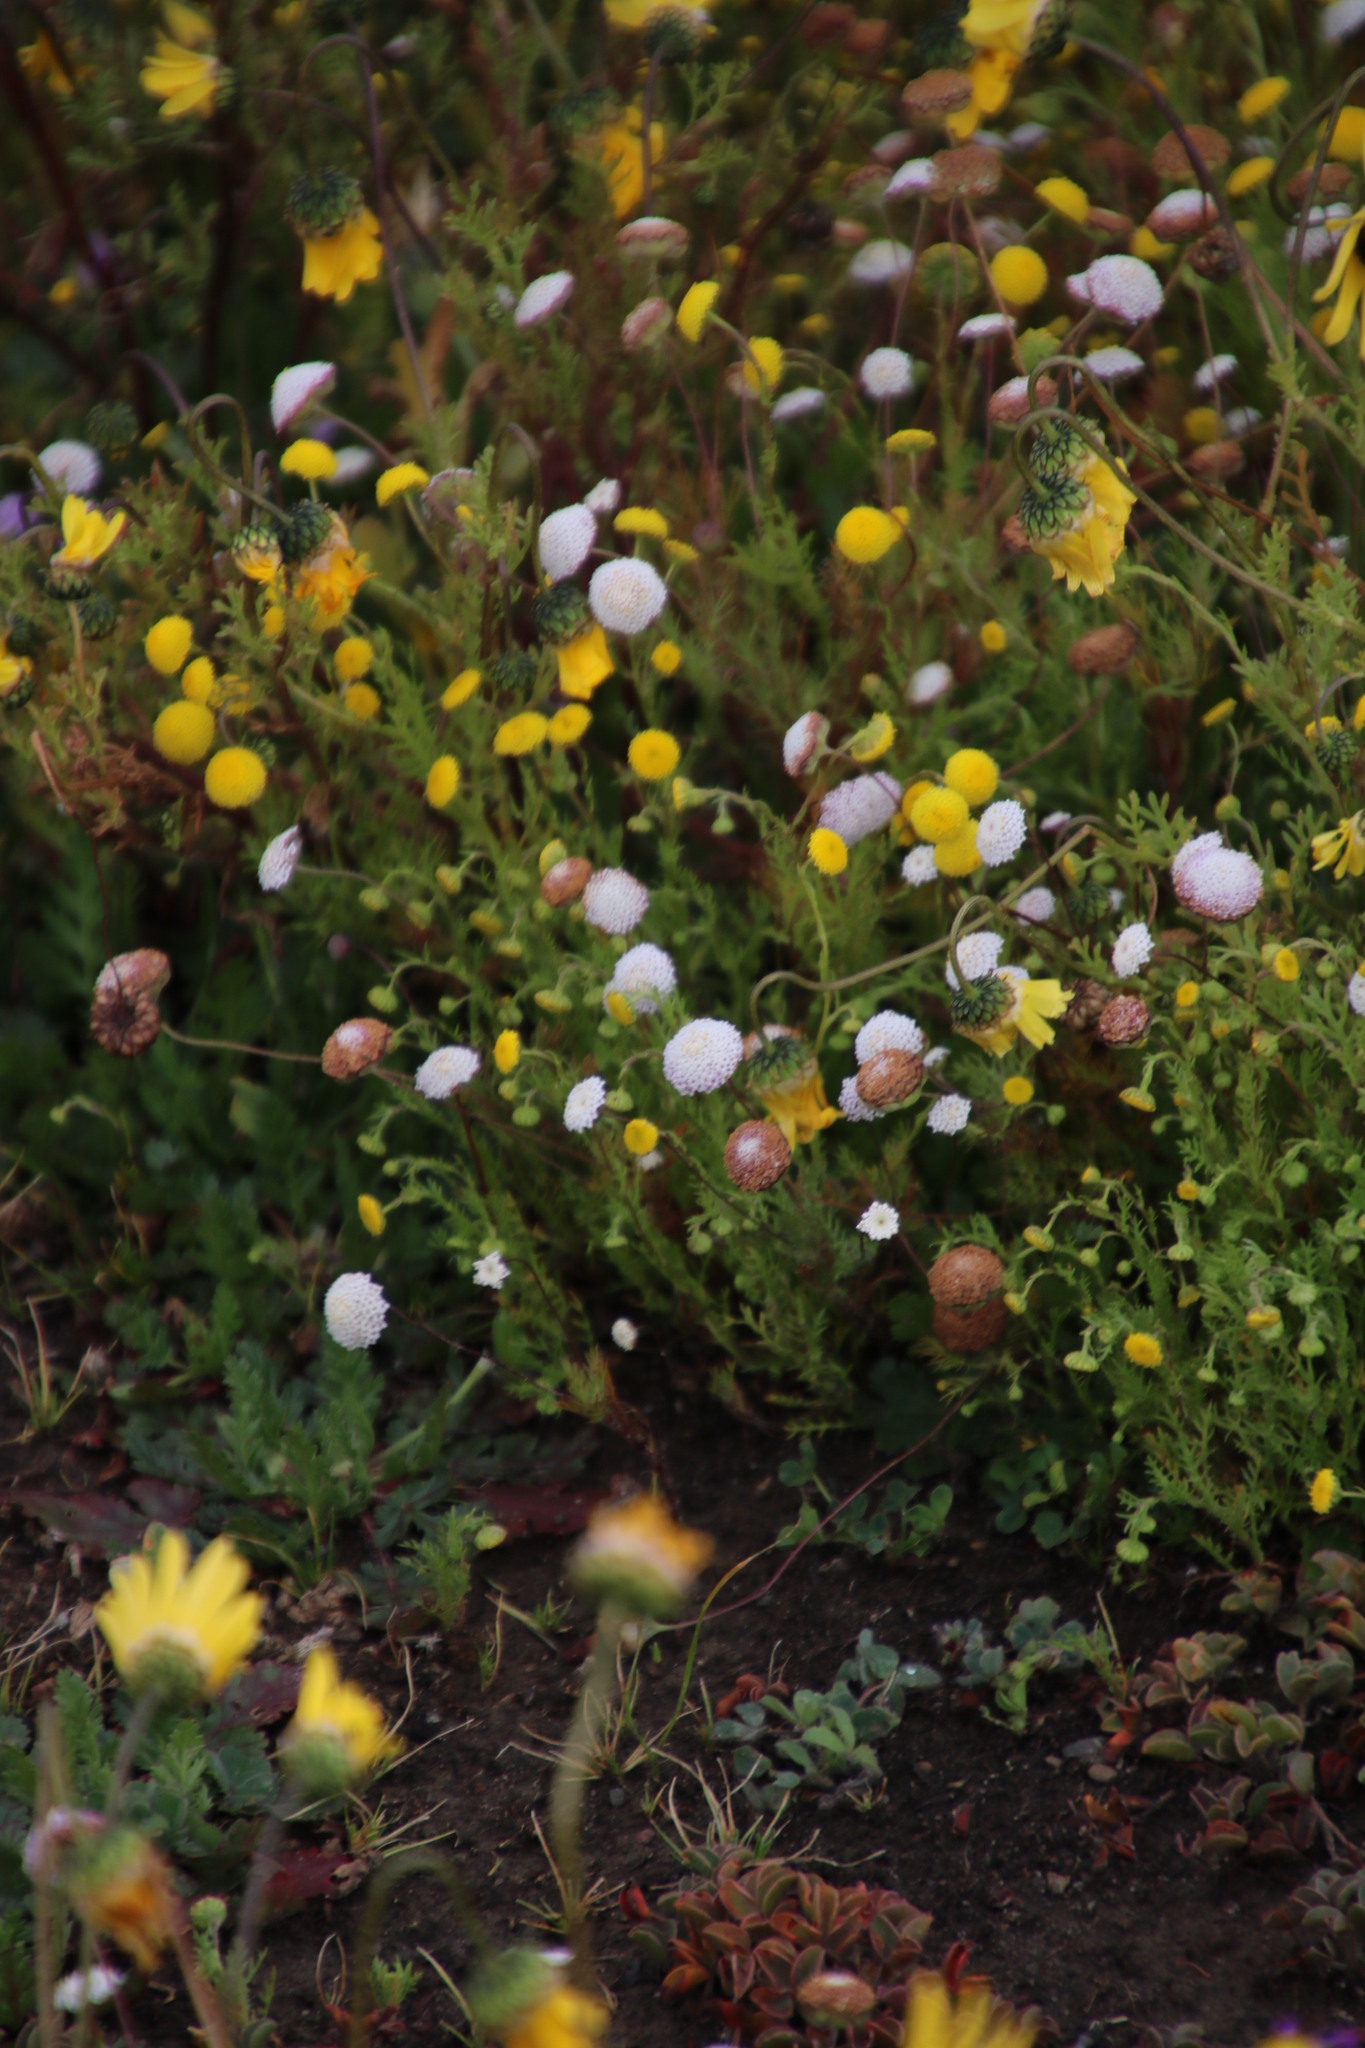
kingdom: Plantae
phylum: Tracheophyta
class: Magnoliopsida
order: Asterales
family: Asteraceae
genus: Cotula
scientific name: Cotula nudicaulis
